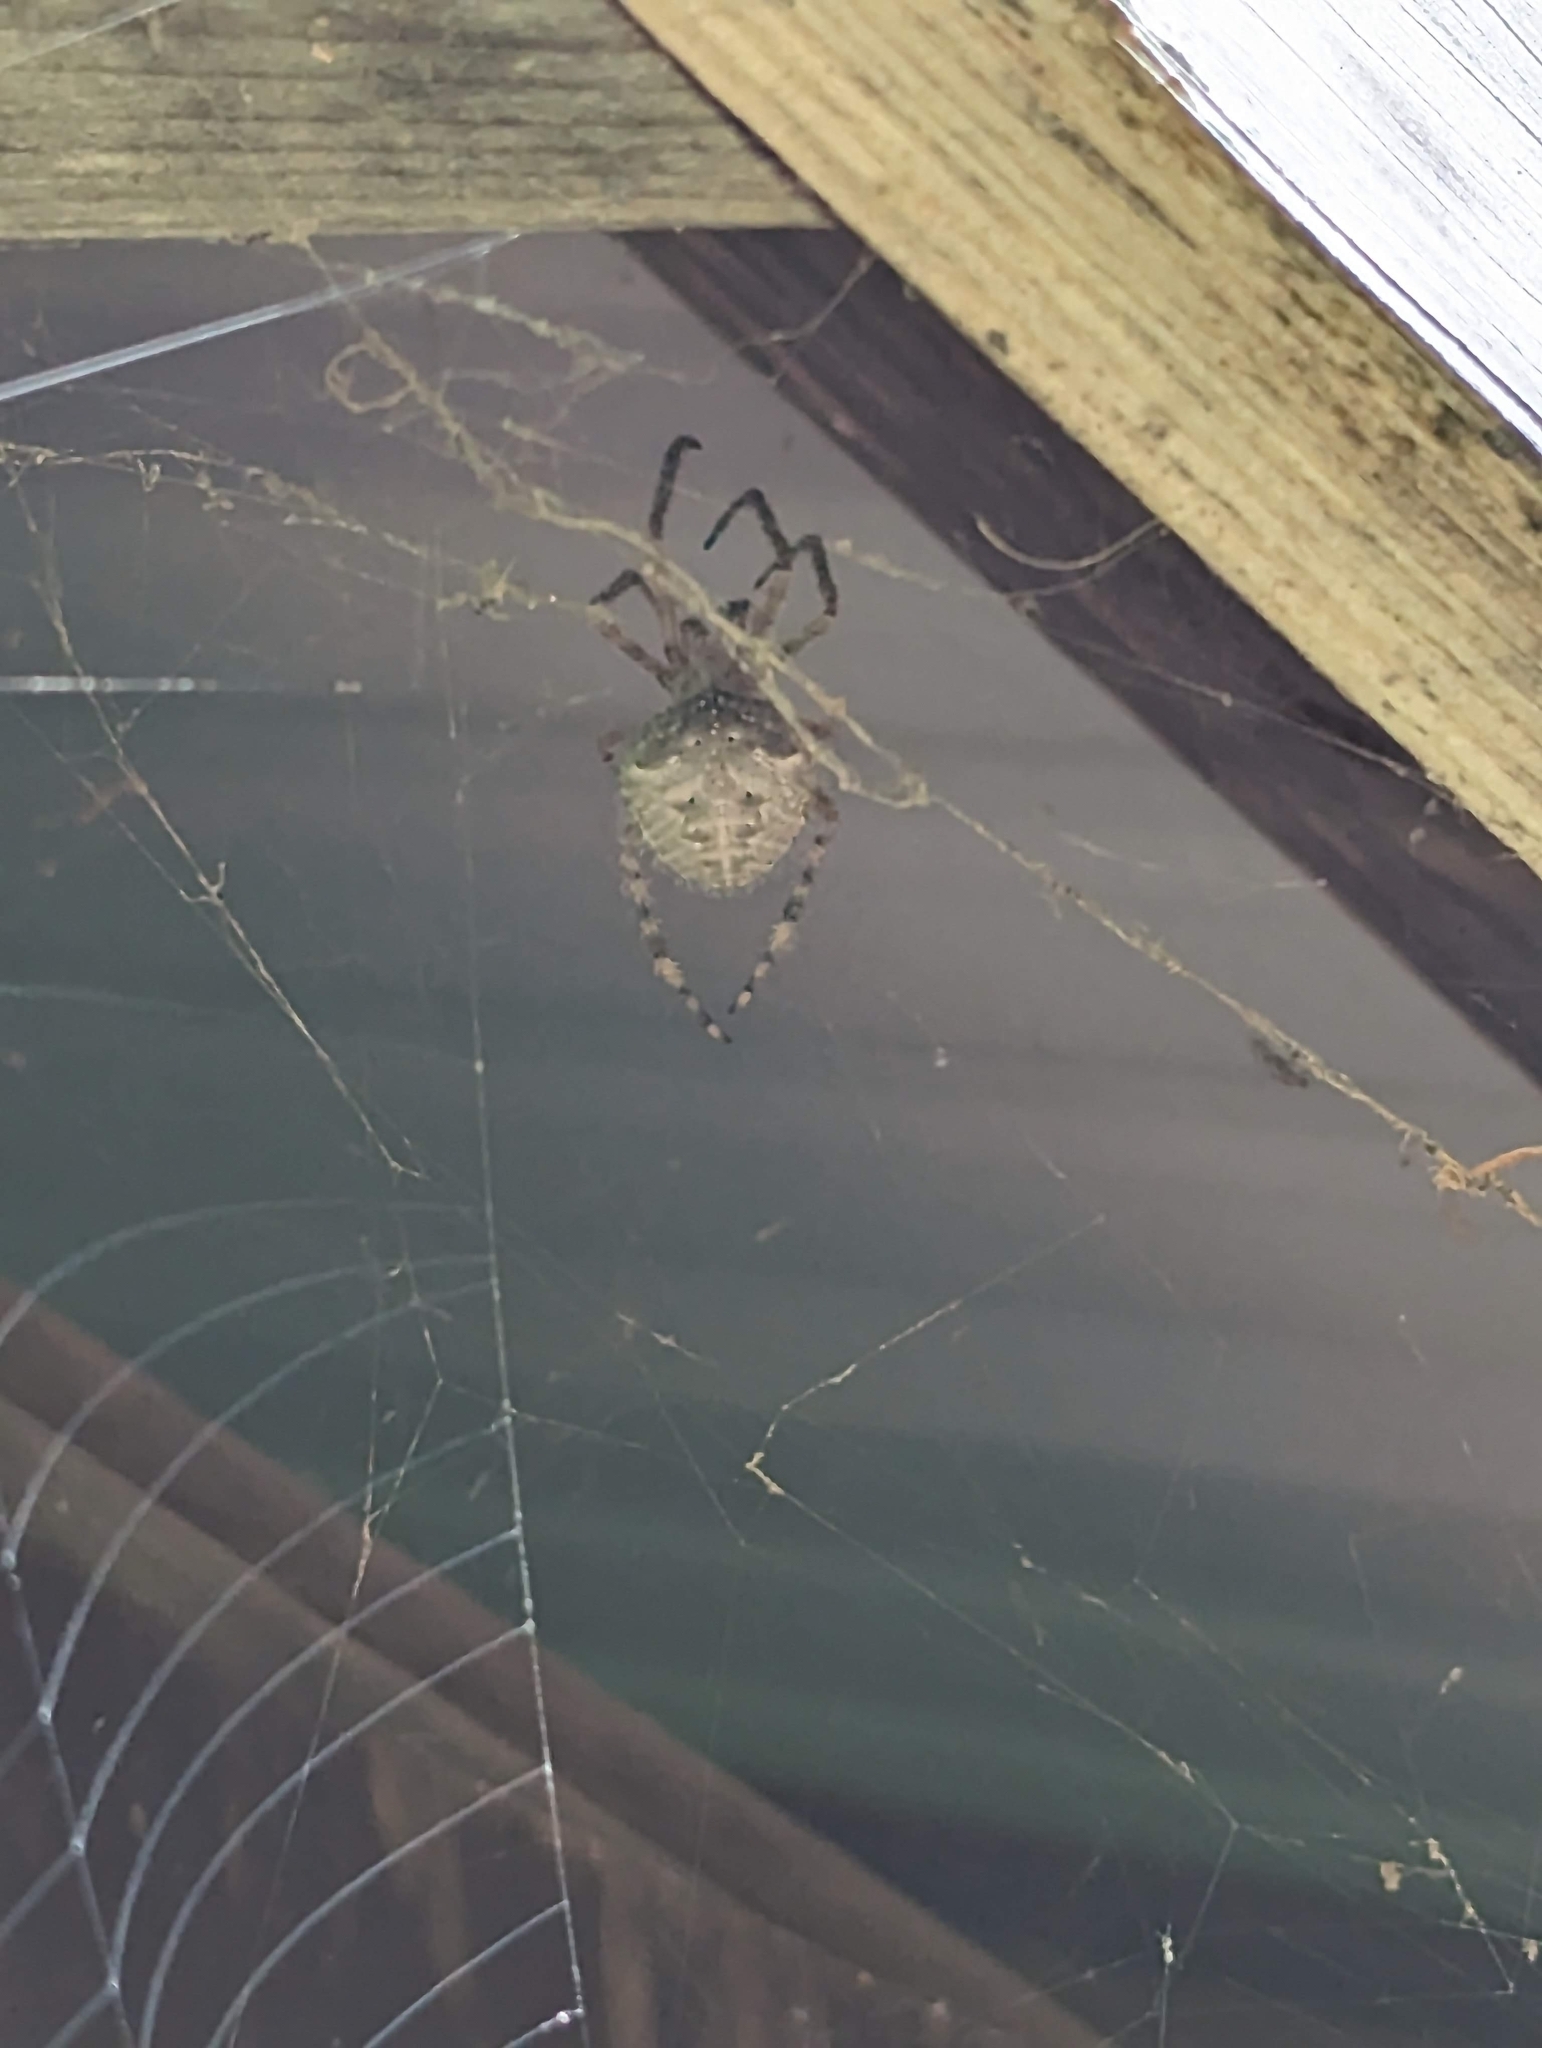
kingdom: Animalia
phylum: Arthropoda
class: Arachnida
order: Araneae
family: Araneidae
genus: Araneus
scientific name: Araneus cavaticus
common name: Barn orbweaver
